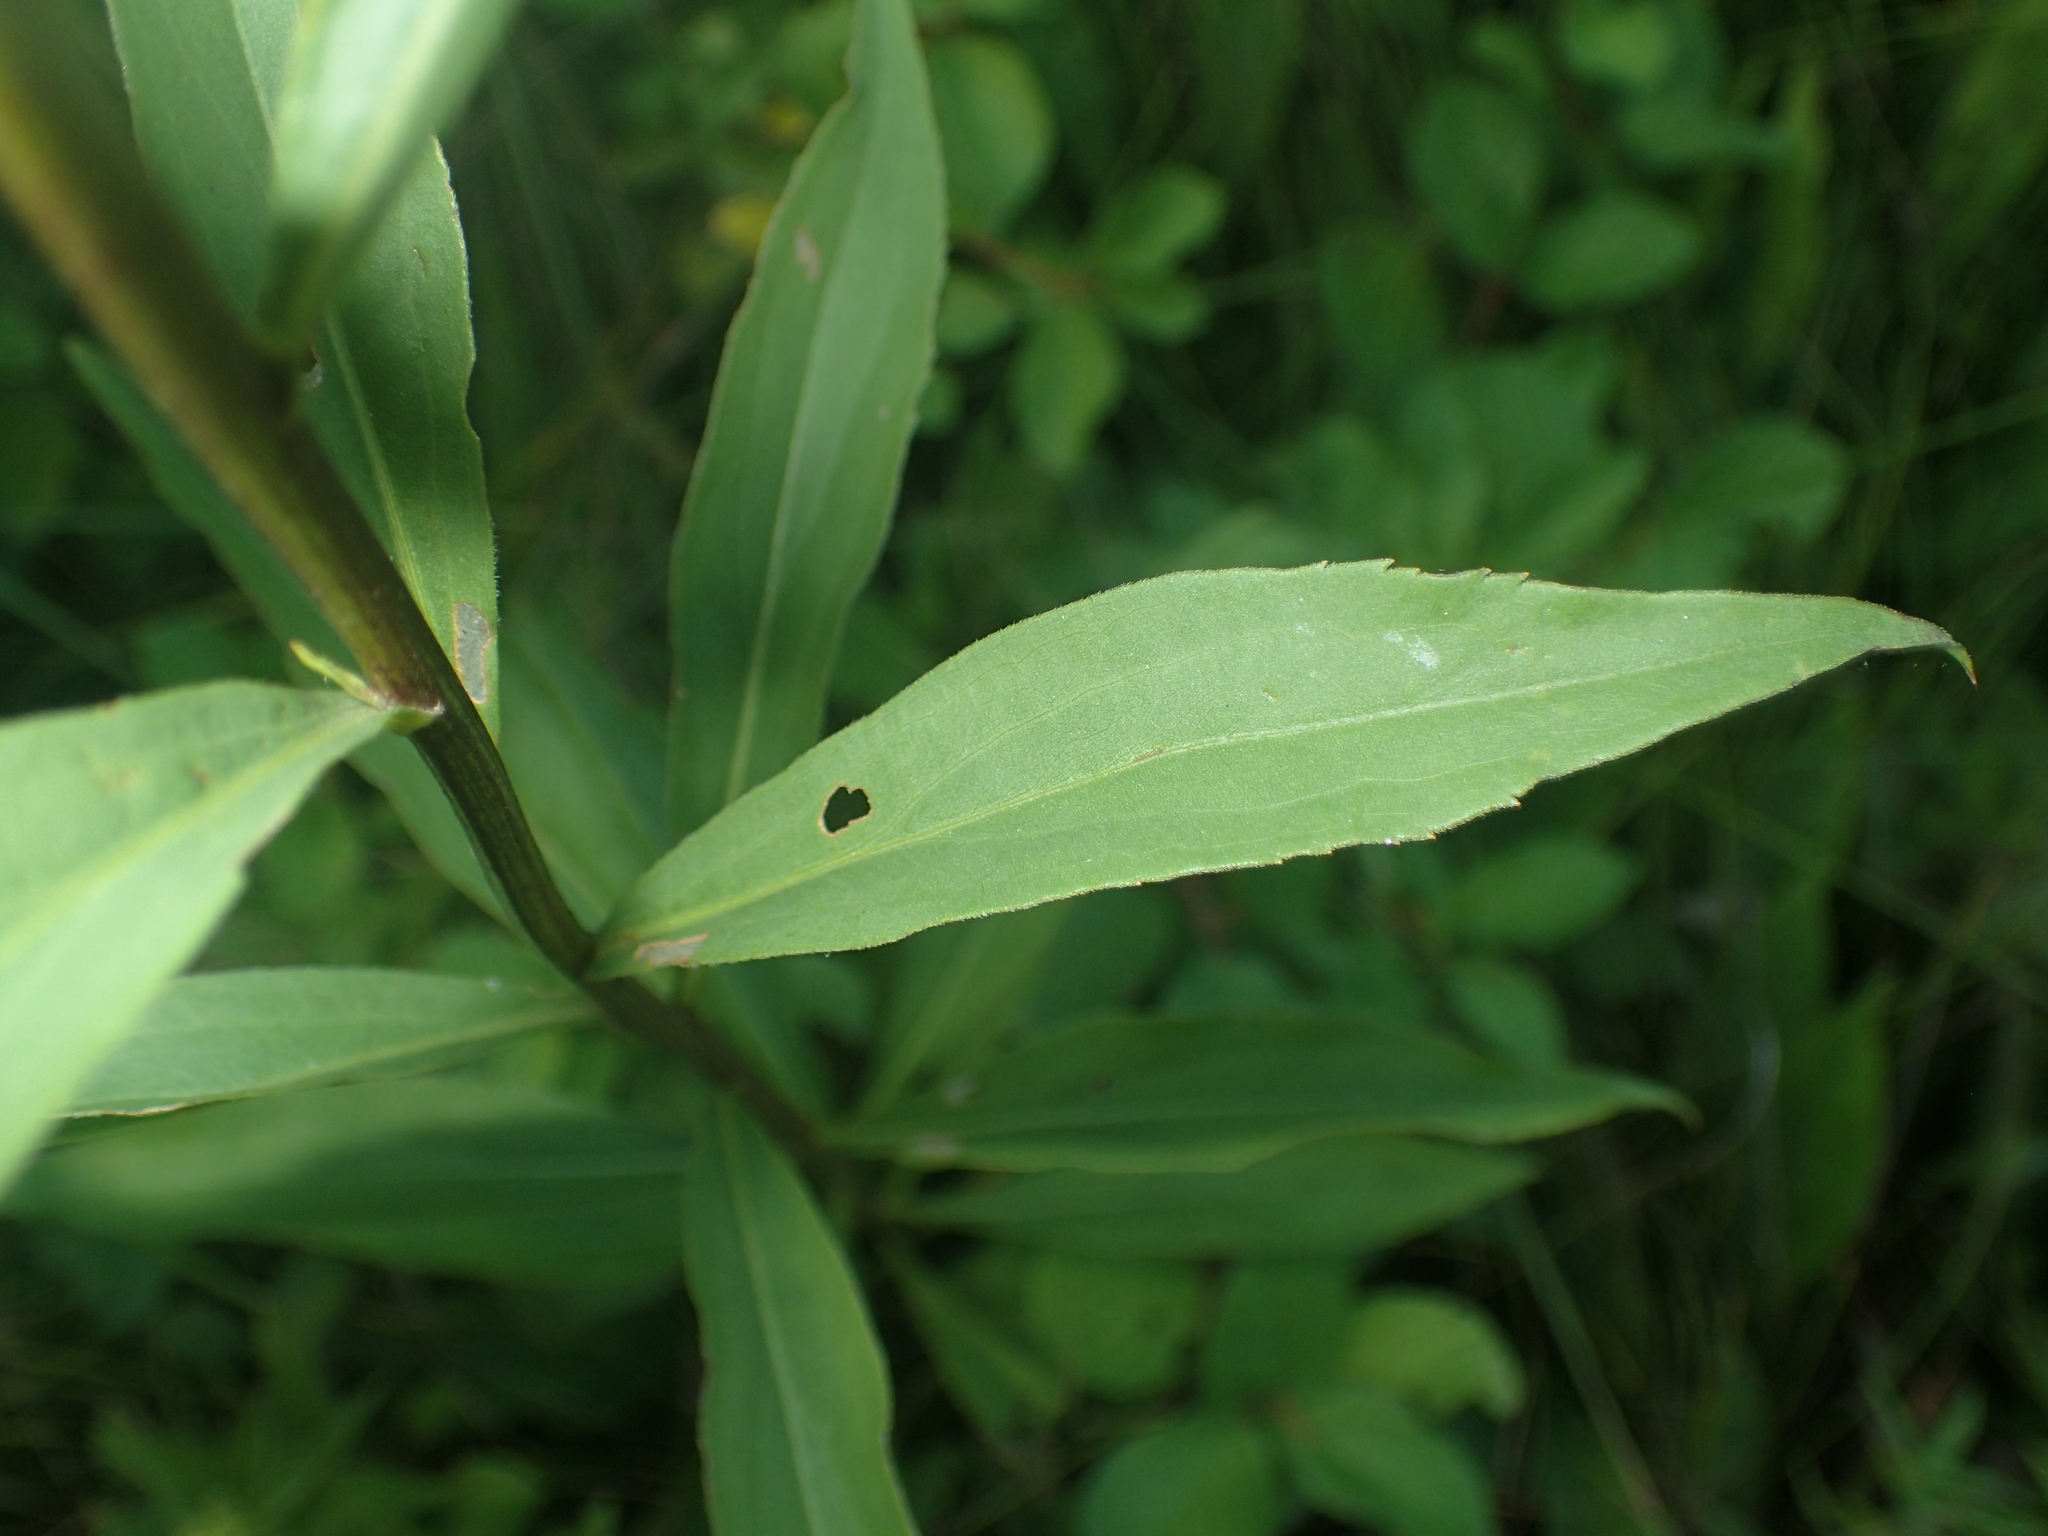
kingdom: Plantae
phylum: Tracheophyta
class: Magnoliopsida
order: Asterales
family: Asteraceae
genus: Solidago
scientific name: Solidago juncea
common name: Early goldenrod
